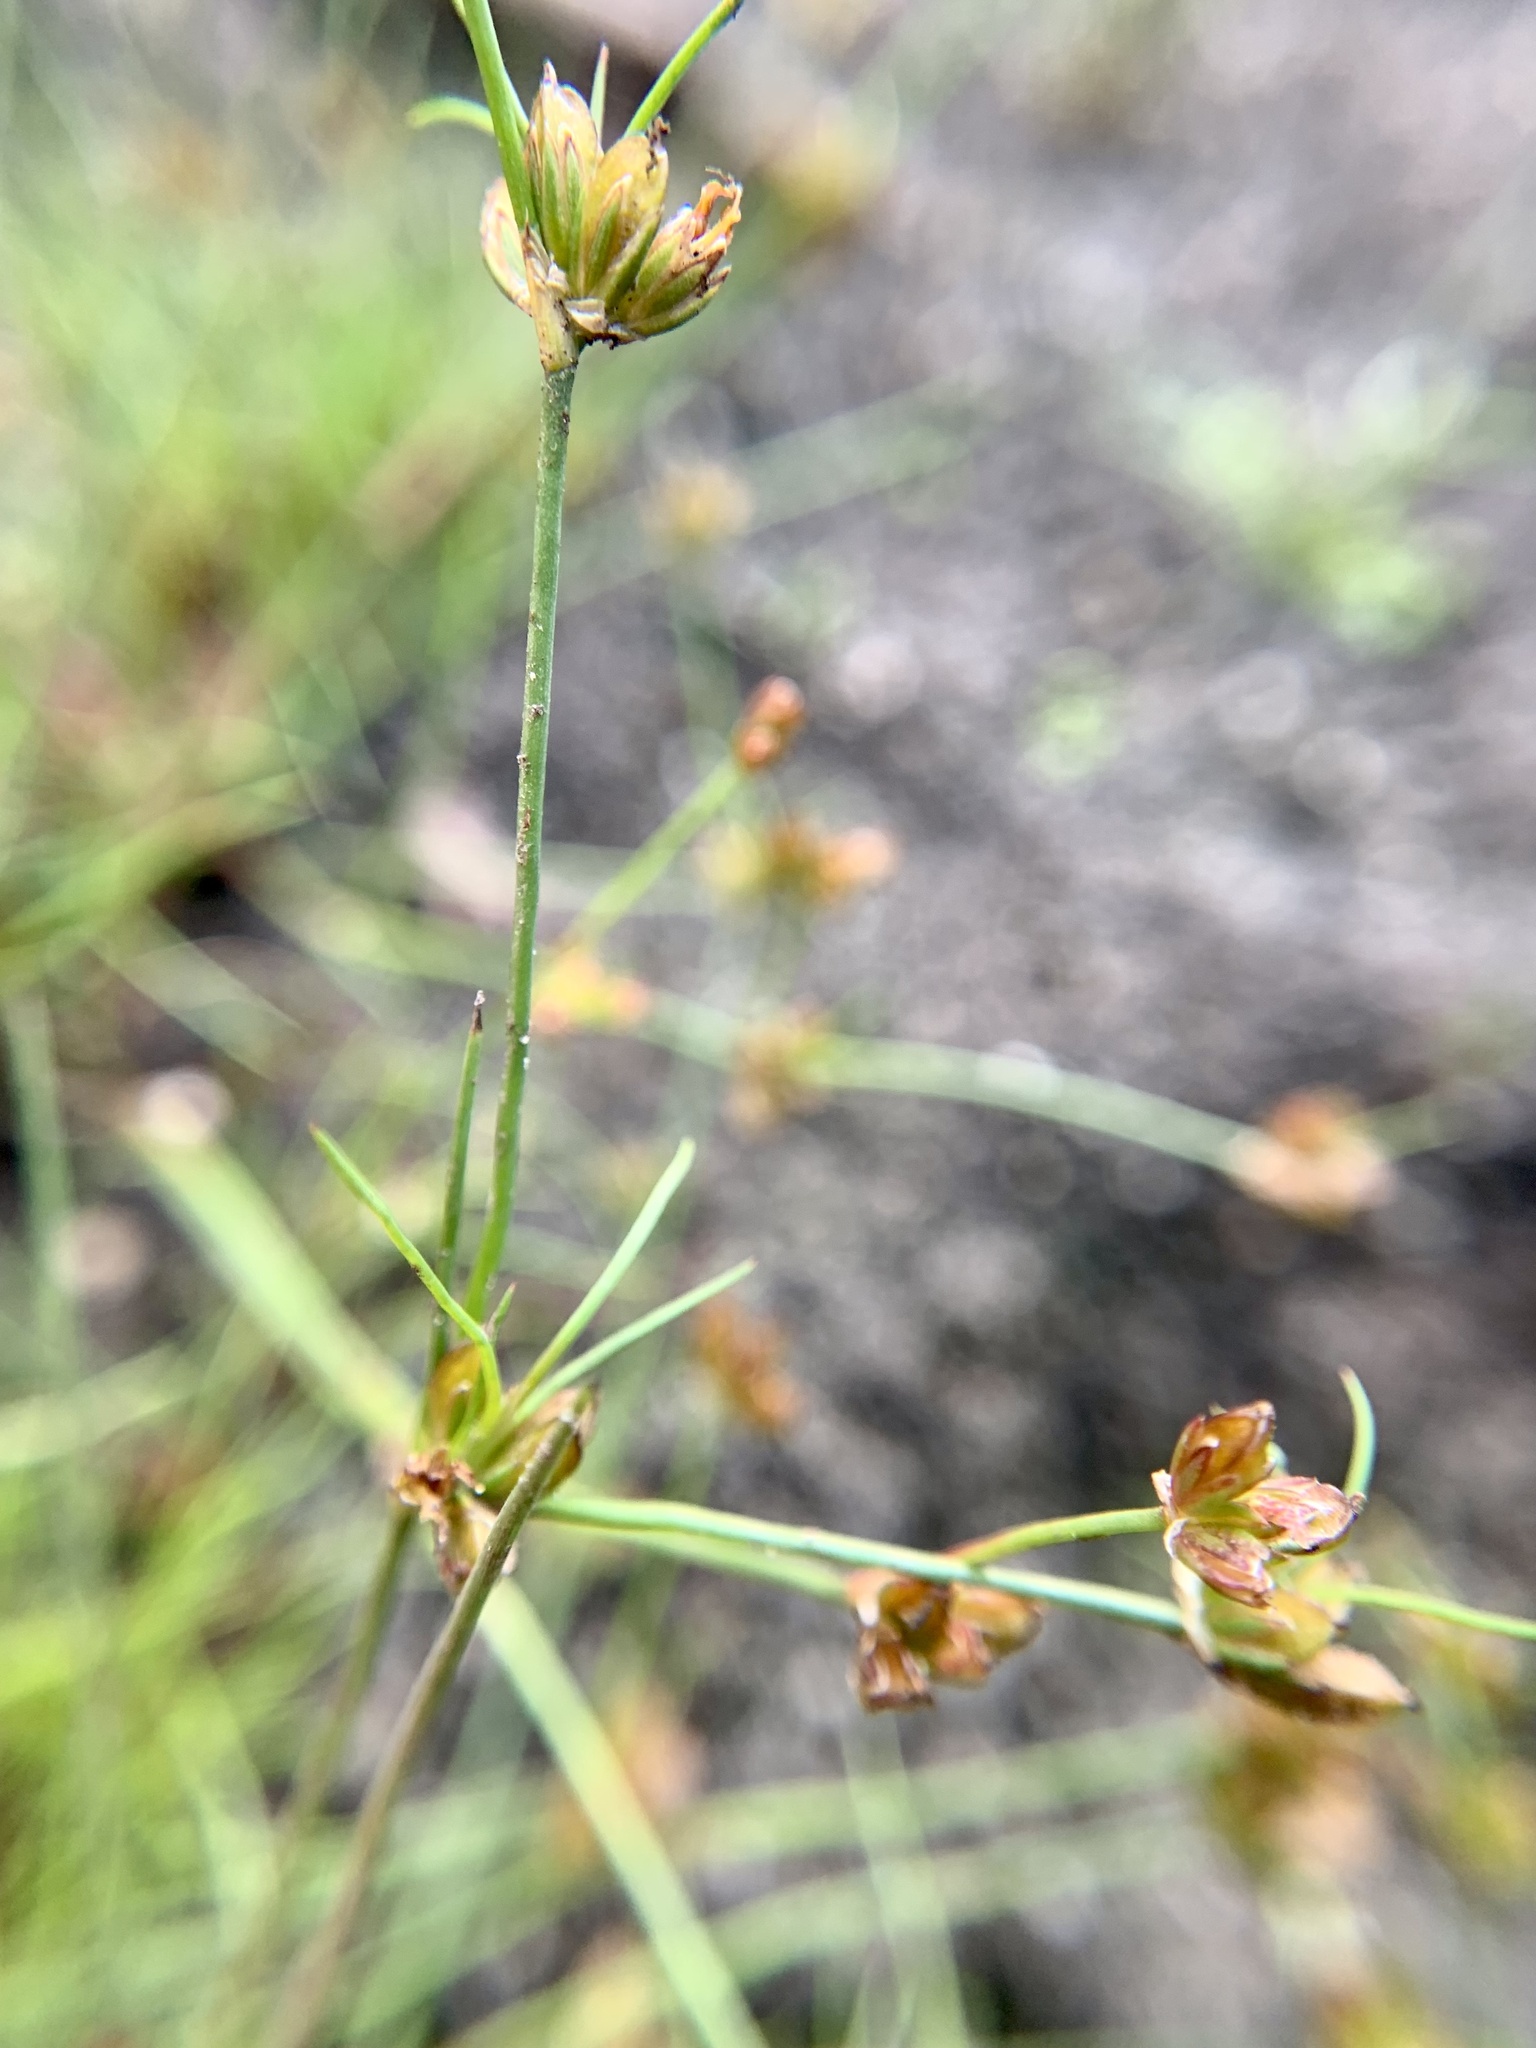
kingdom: Plantae
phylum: Tracheophyta
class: Liliopsida
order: Poales
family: Juncaceae
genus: Juncus
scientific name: Juncus bulbosus
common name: Bulbous rush
